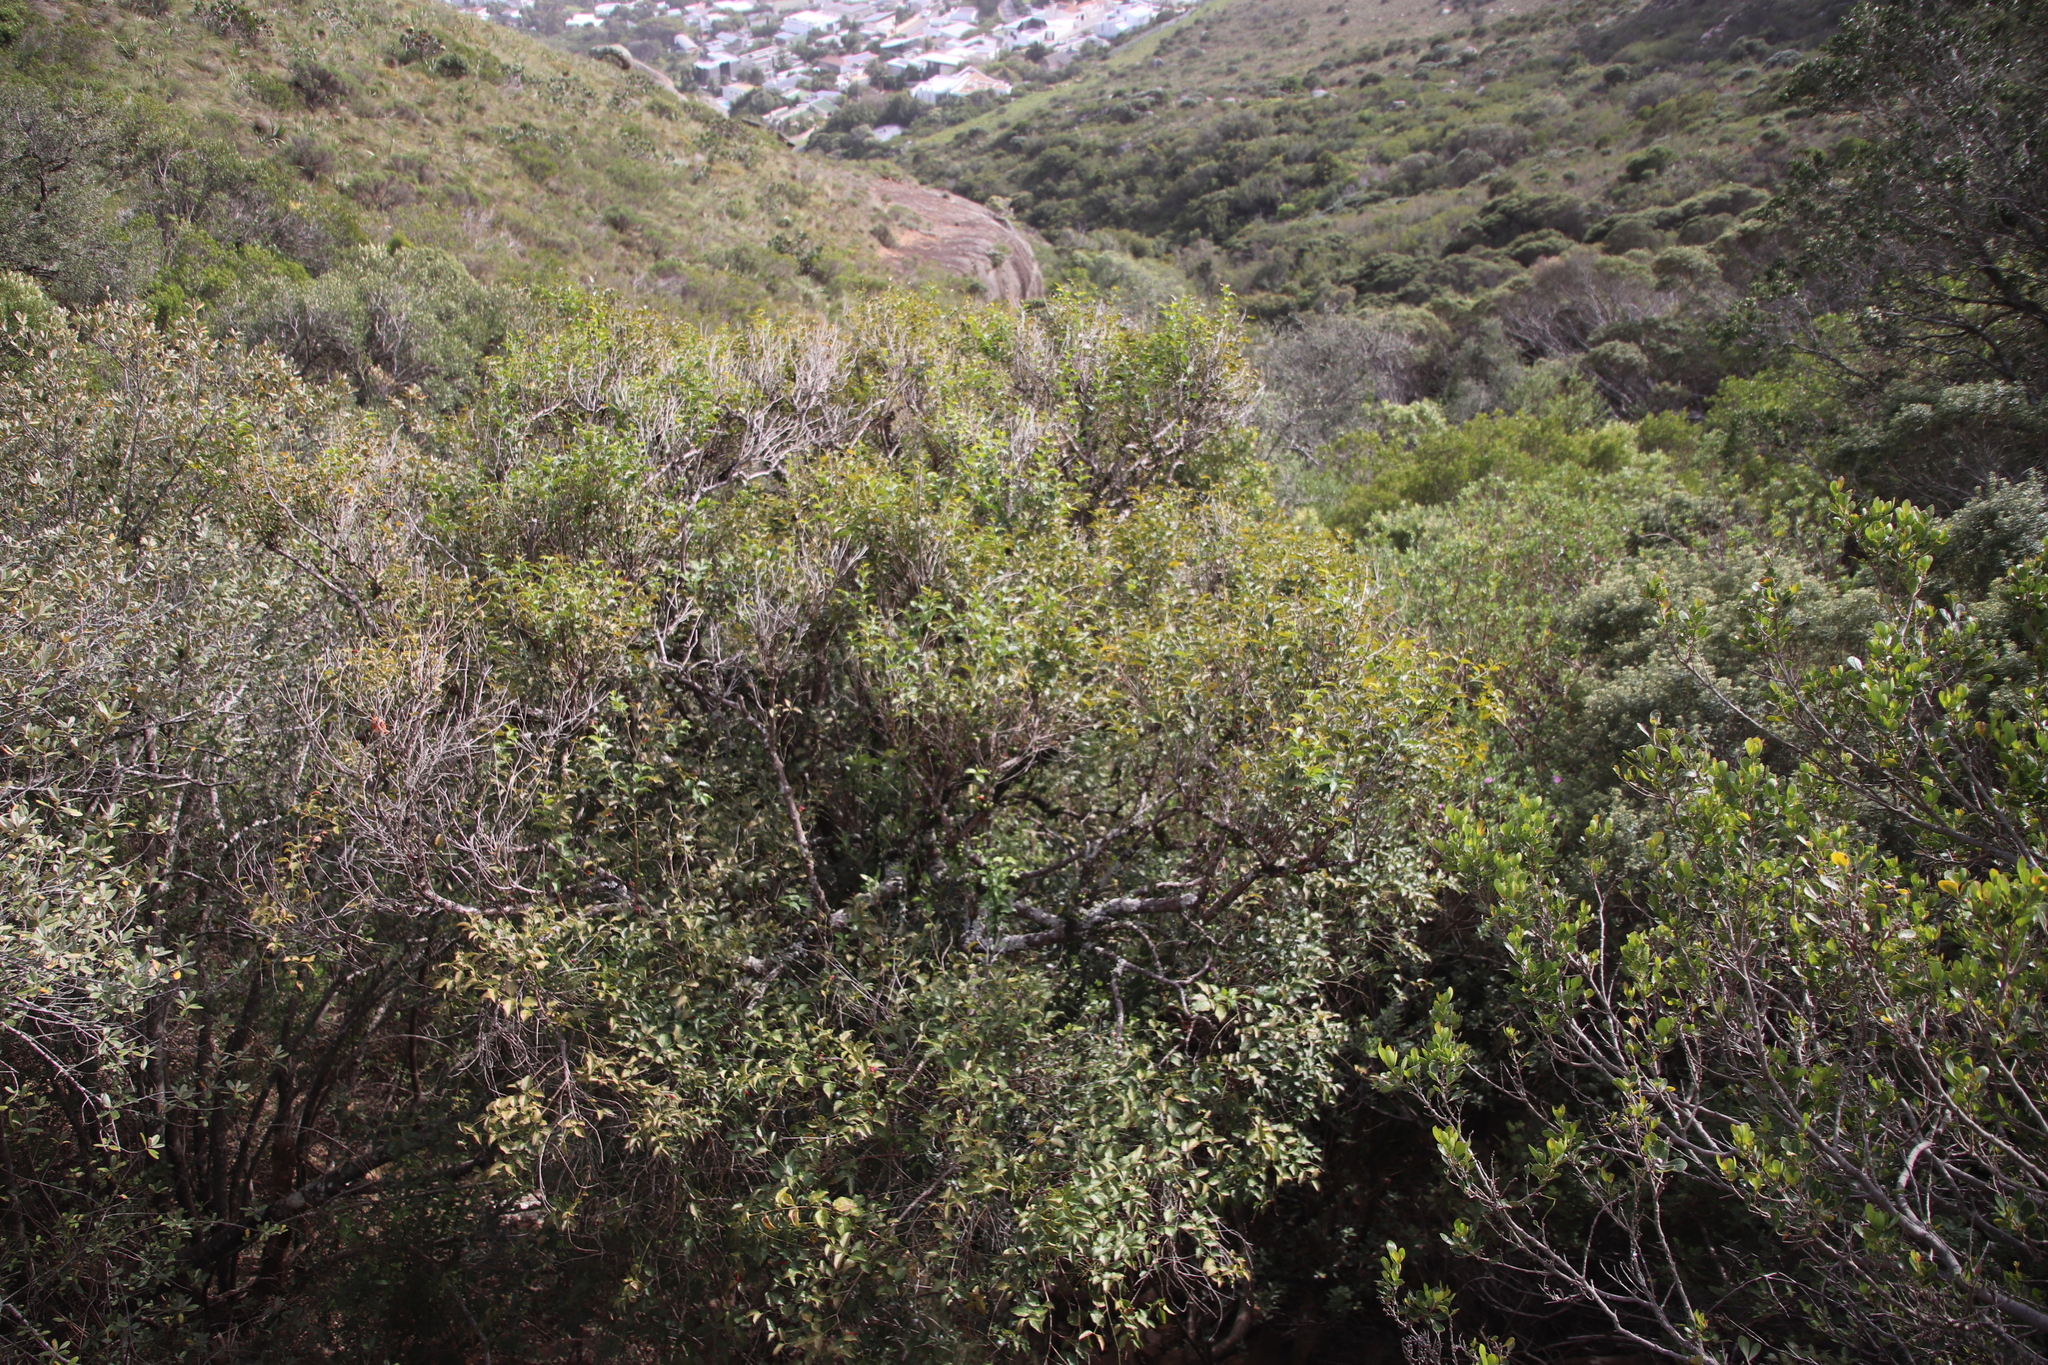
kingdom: Plantae
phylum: Tracheophyta
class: Magnoliopsida
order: Lamiales
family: Stilbaceae
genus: Halleria
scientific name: Halleria lucida
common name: Tree fuschia
